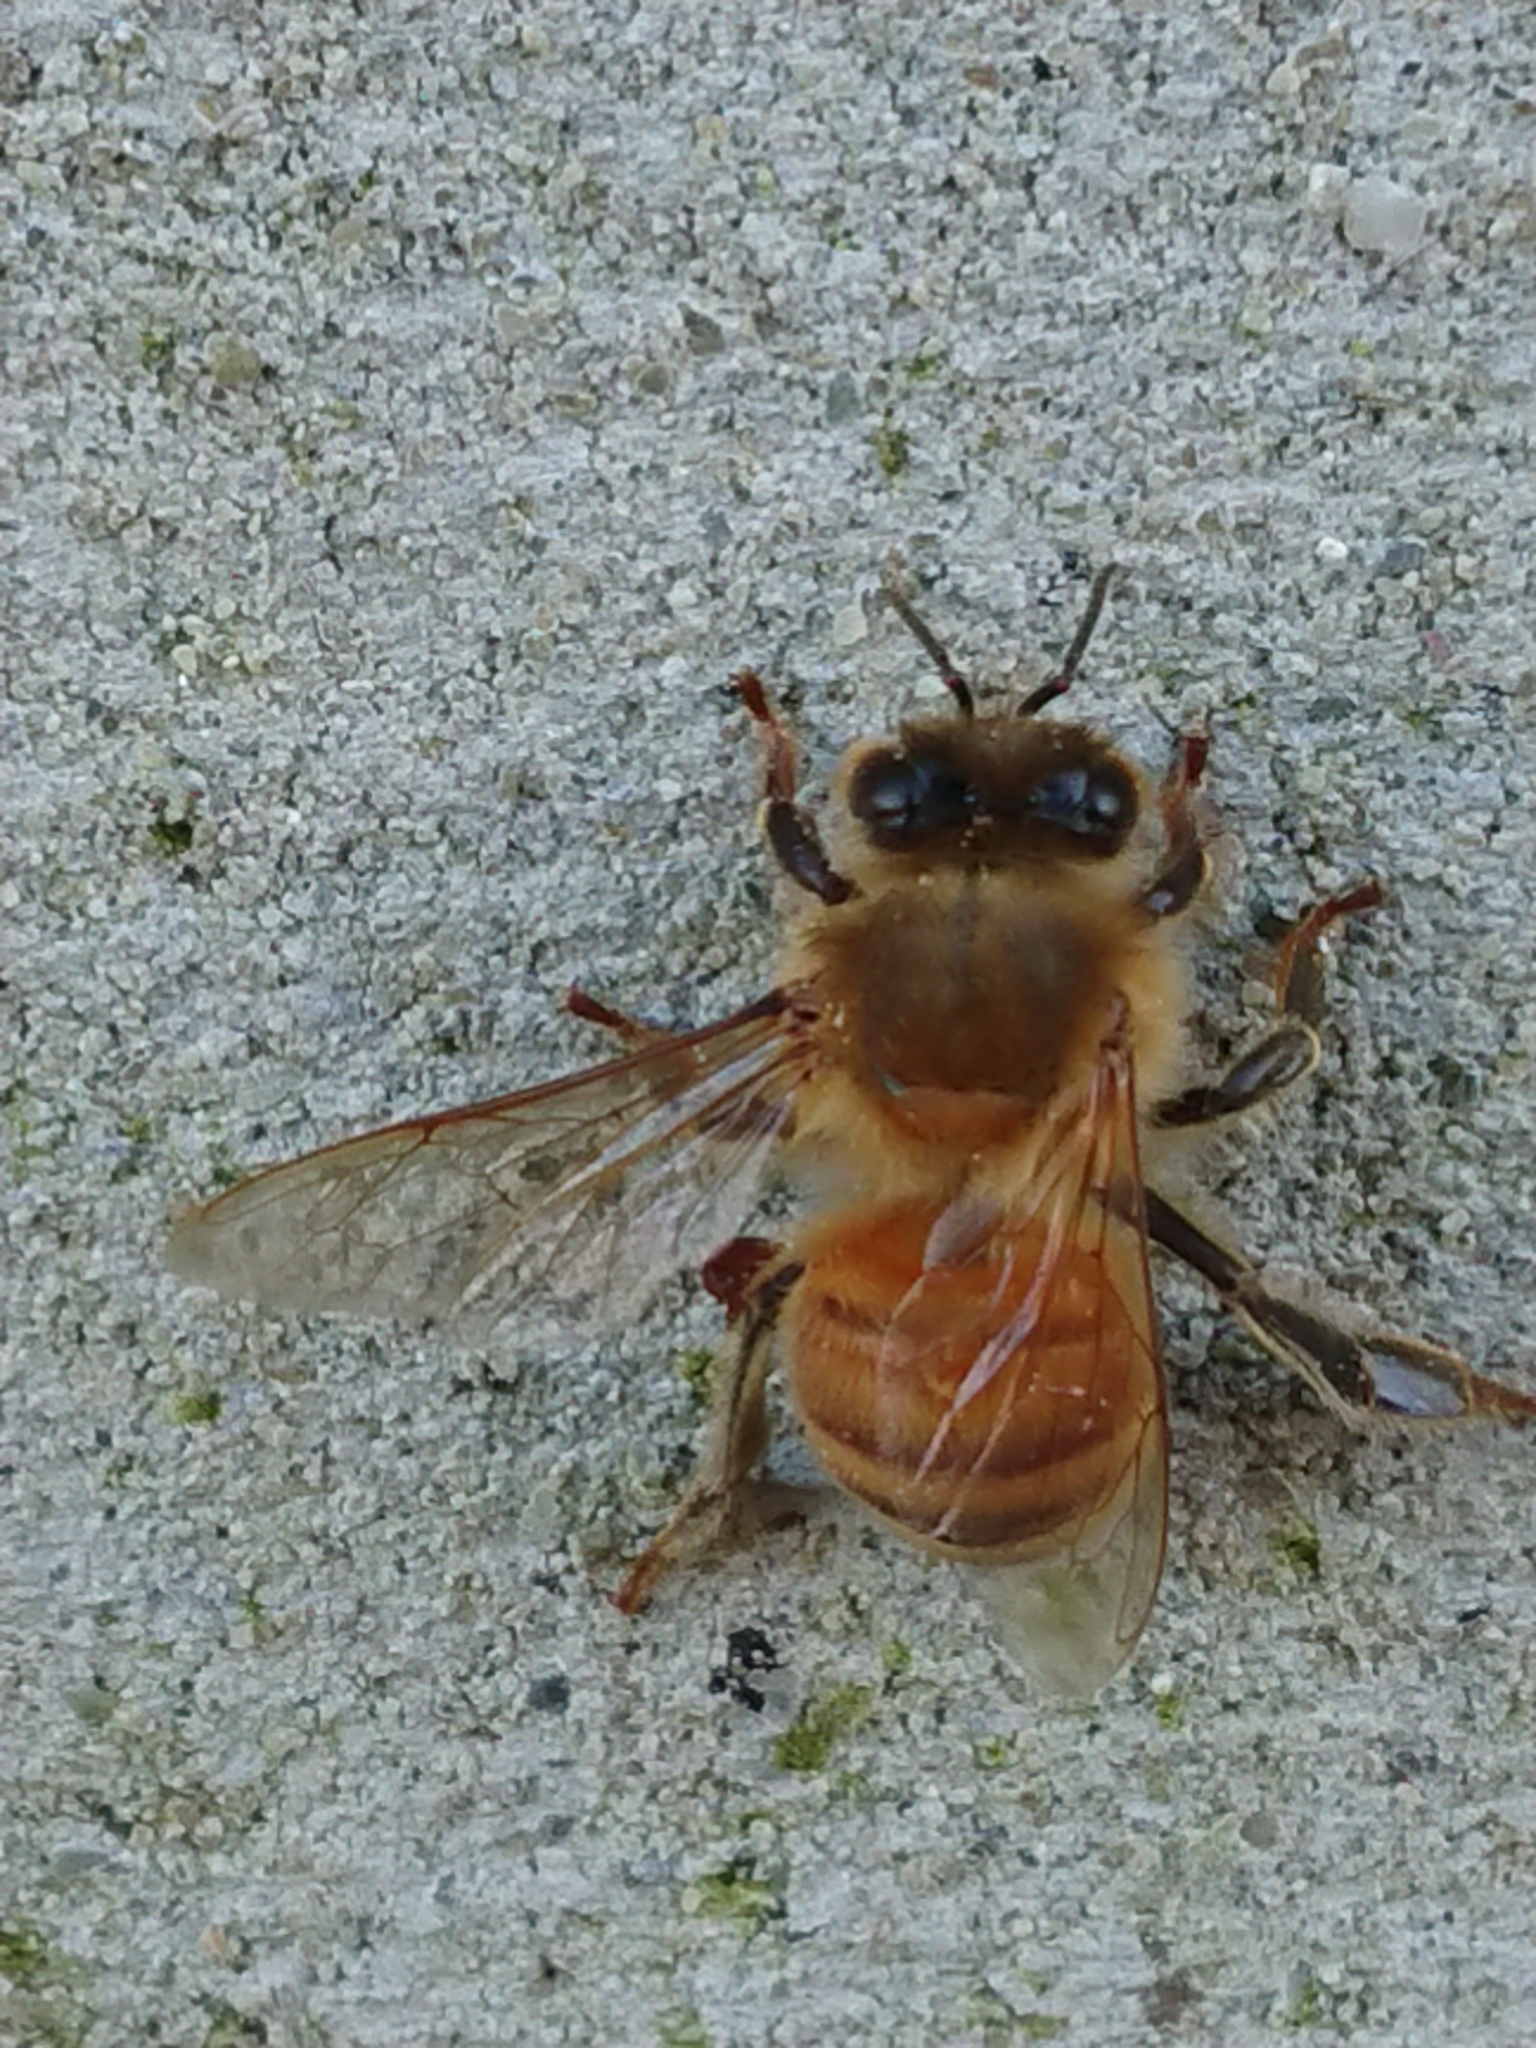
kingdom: Animalia
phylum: Arthropoda
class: Insecta
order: Hymenoptera
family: Apidae
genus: Apis
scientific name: Apis mellifera
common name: Honey bee
